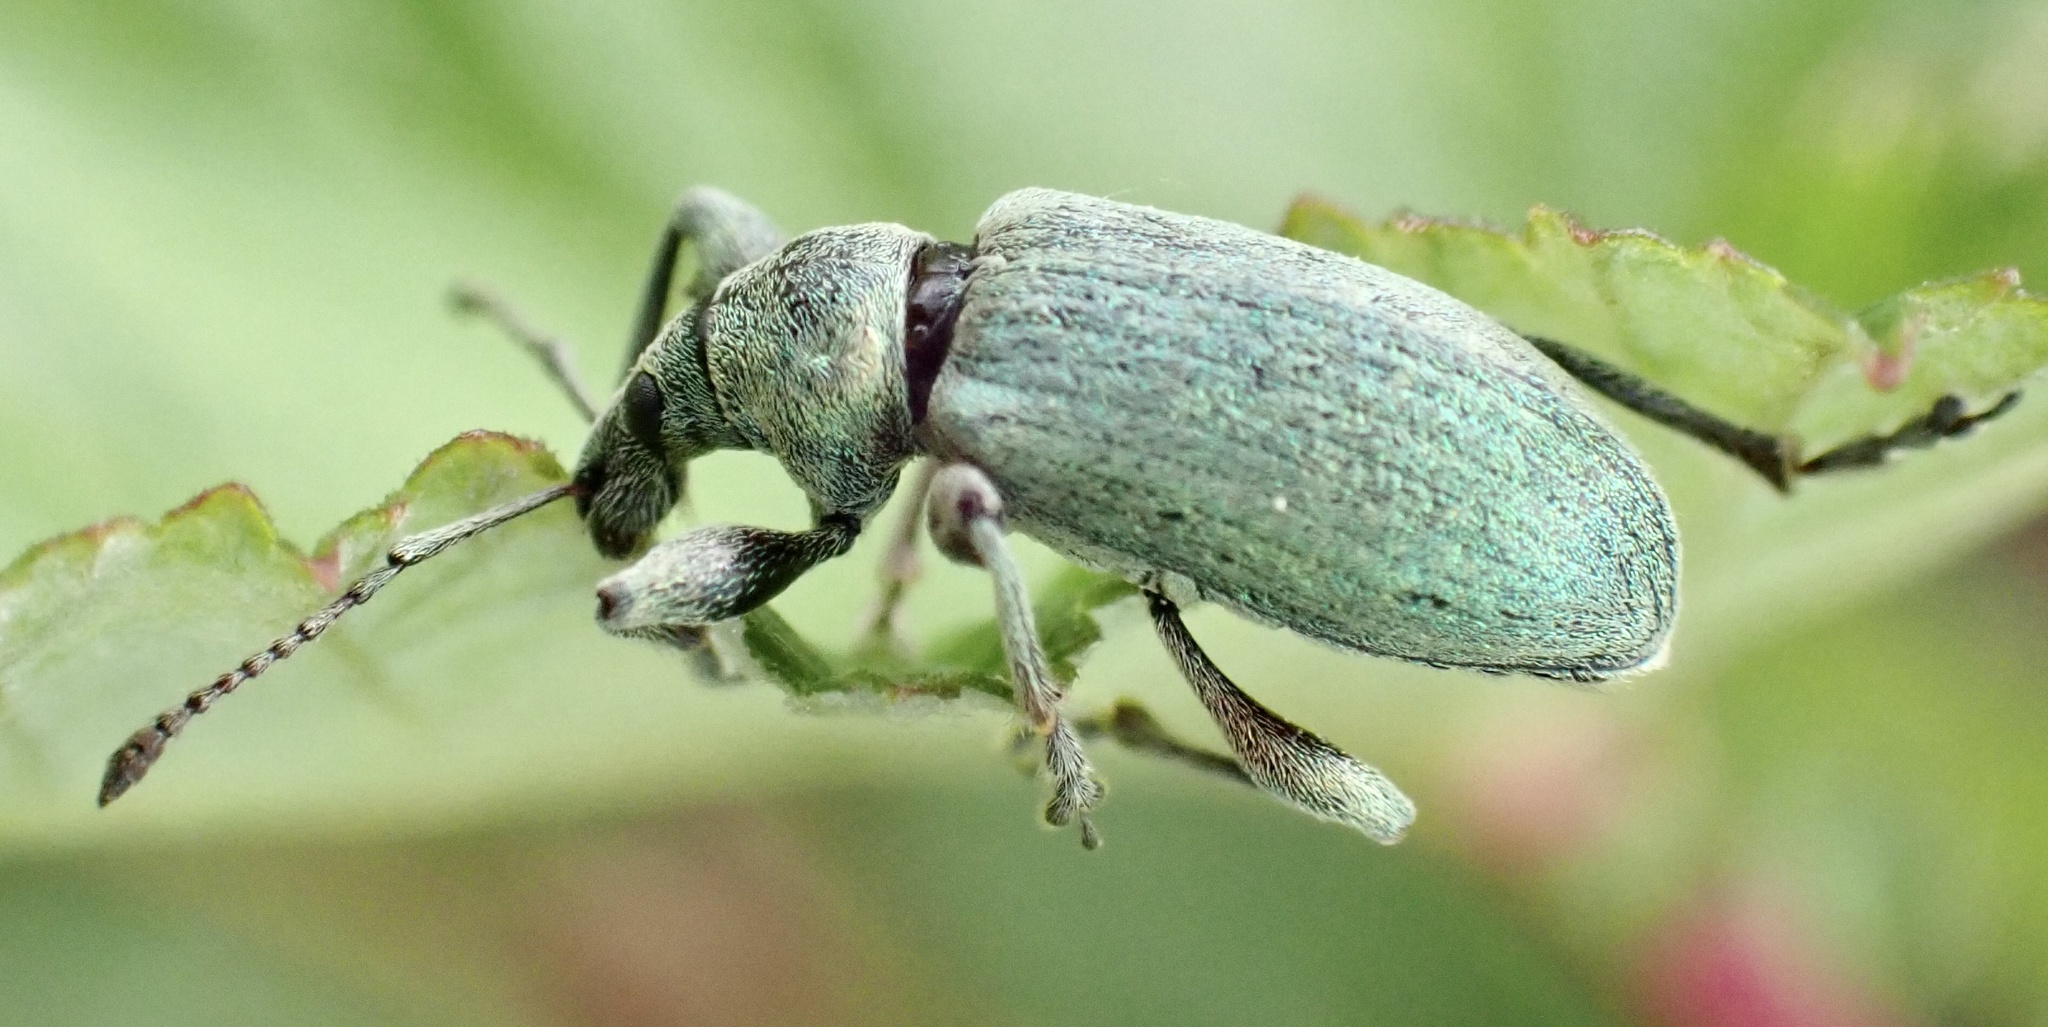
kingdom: Animalia
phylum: Arthropoda
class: Insecta
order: Coleoptera
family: Curculionidae
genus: Phyllobius
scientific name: Phyllobius pomaceus
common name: Green nettle weevil
